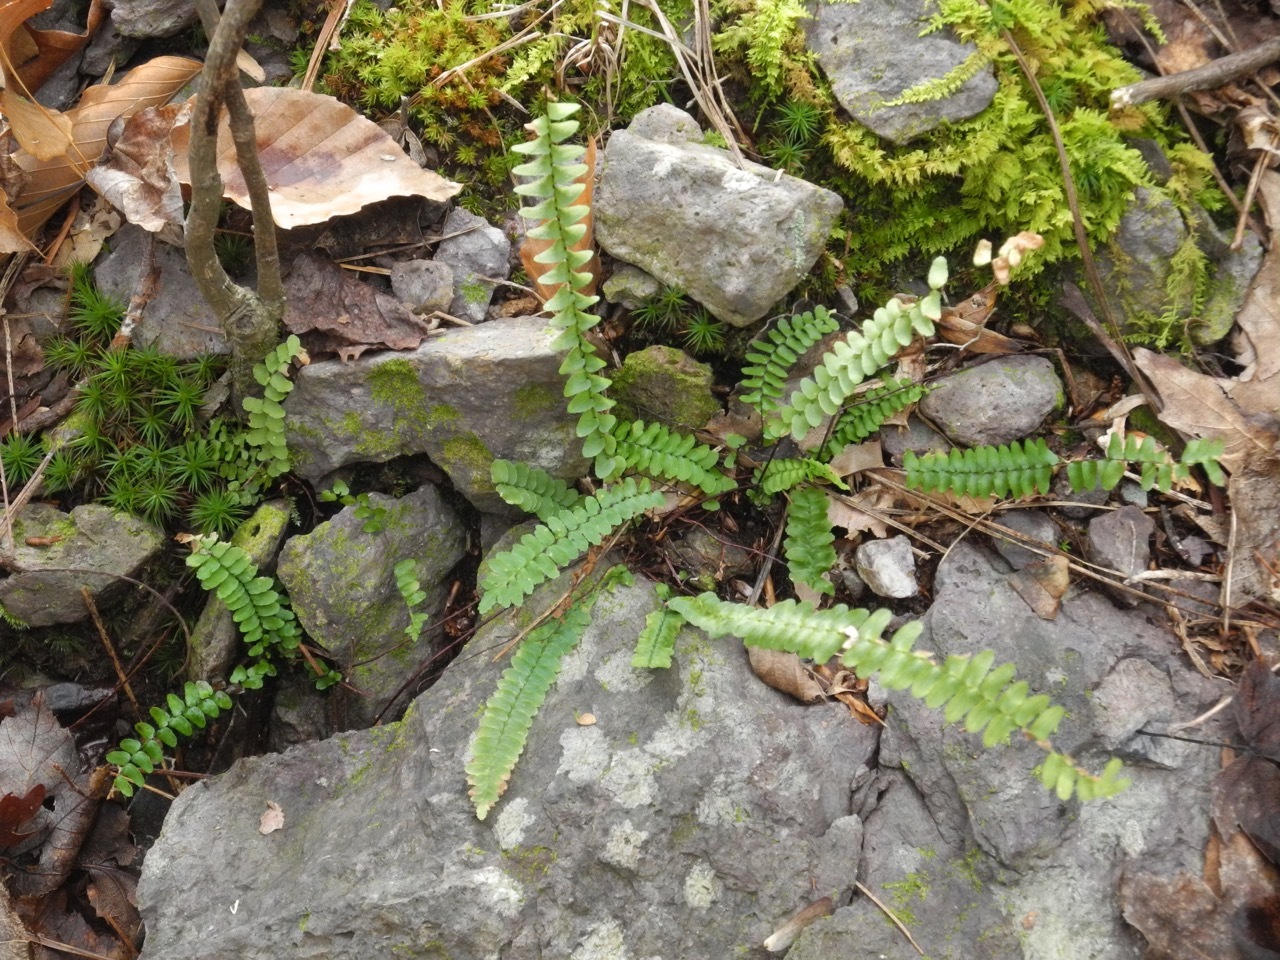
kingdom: Plantae
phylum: Tracheophyta
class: Polypodiopsida
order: Polypodiales
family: Aspleniaceae
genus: Asplenium
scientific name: Asplenium platyneuron
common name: Ebony spleenwort
